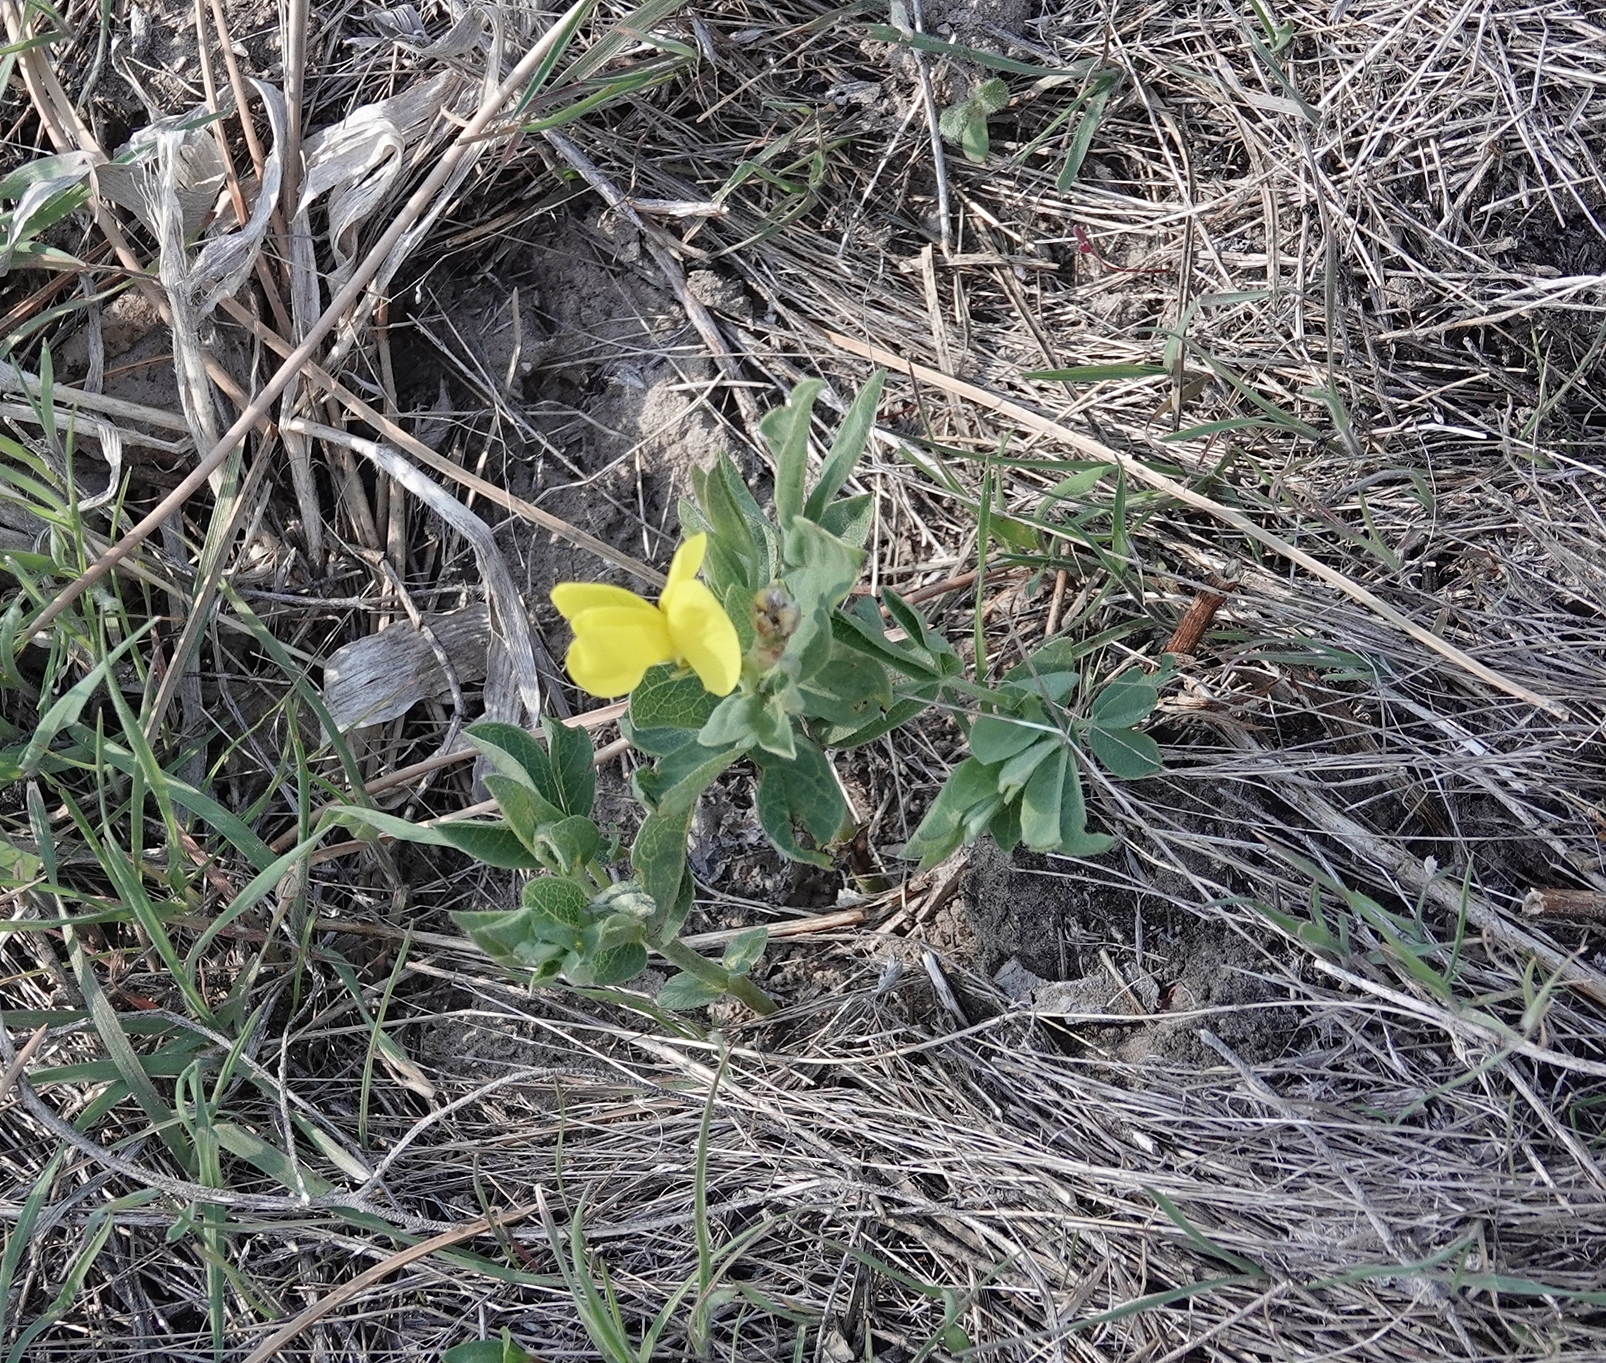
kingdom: Plantae
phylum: Tracheophyta
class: Magnoliopsida
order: Fabales
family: Fabaceae
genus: Thermopsis
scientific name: Thermopsis rhombifolia
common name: Circle-pod-pea
